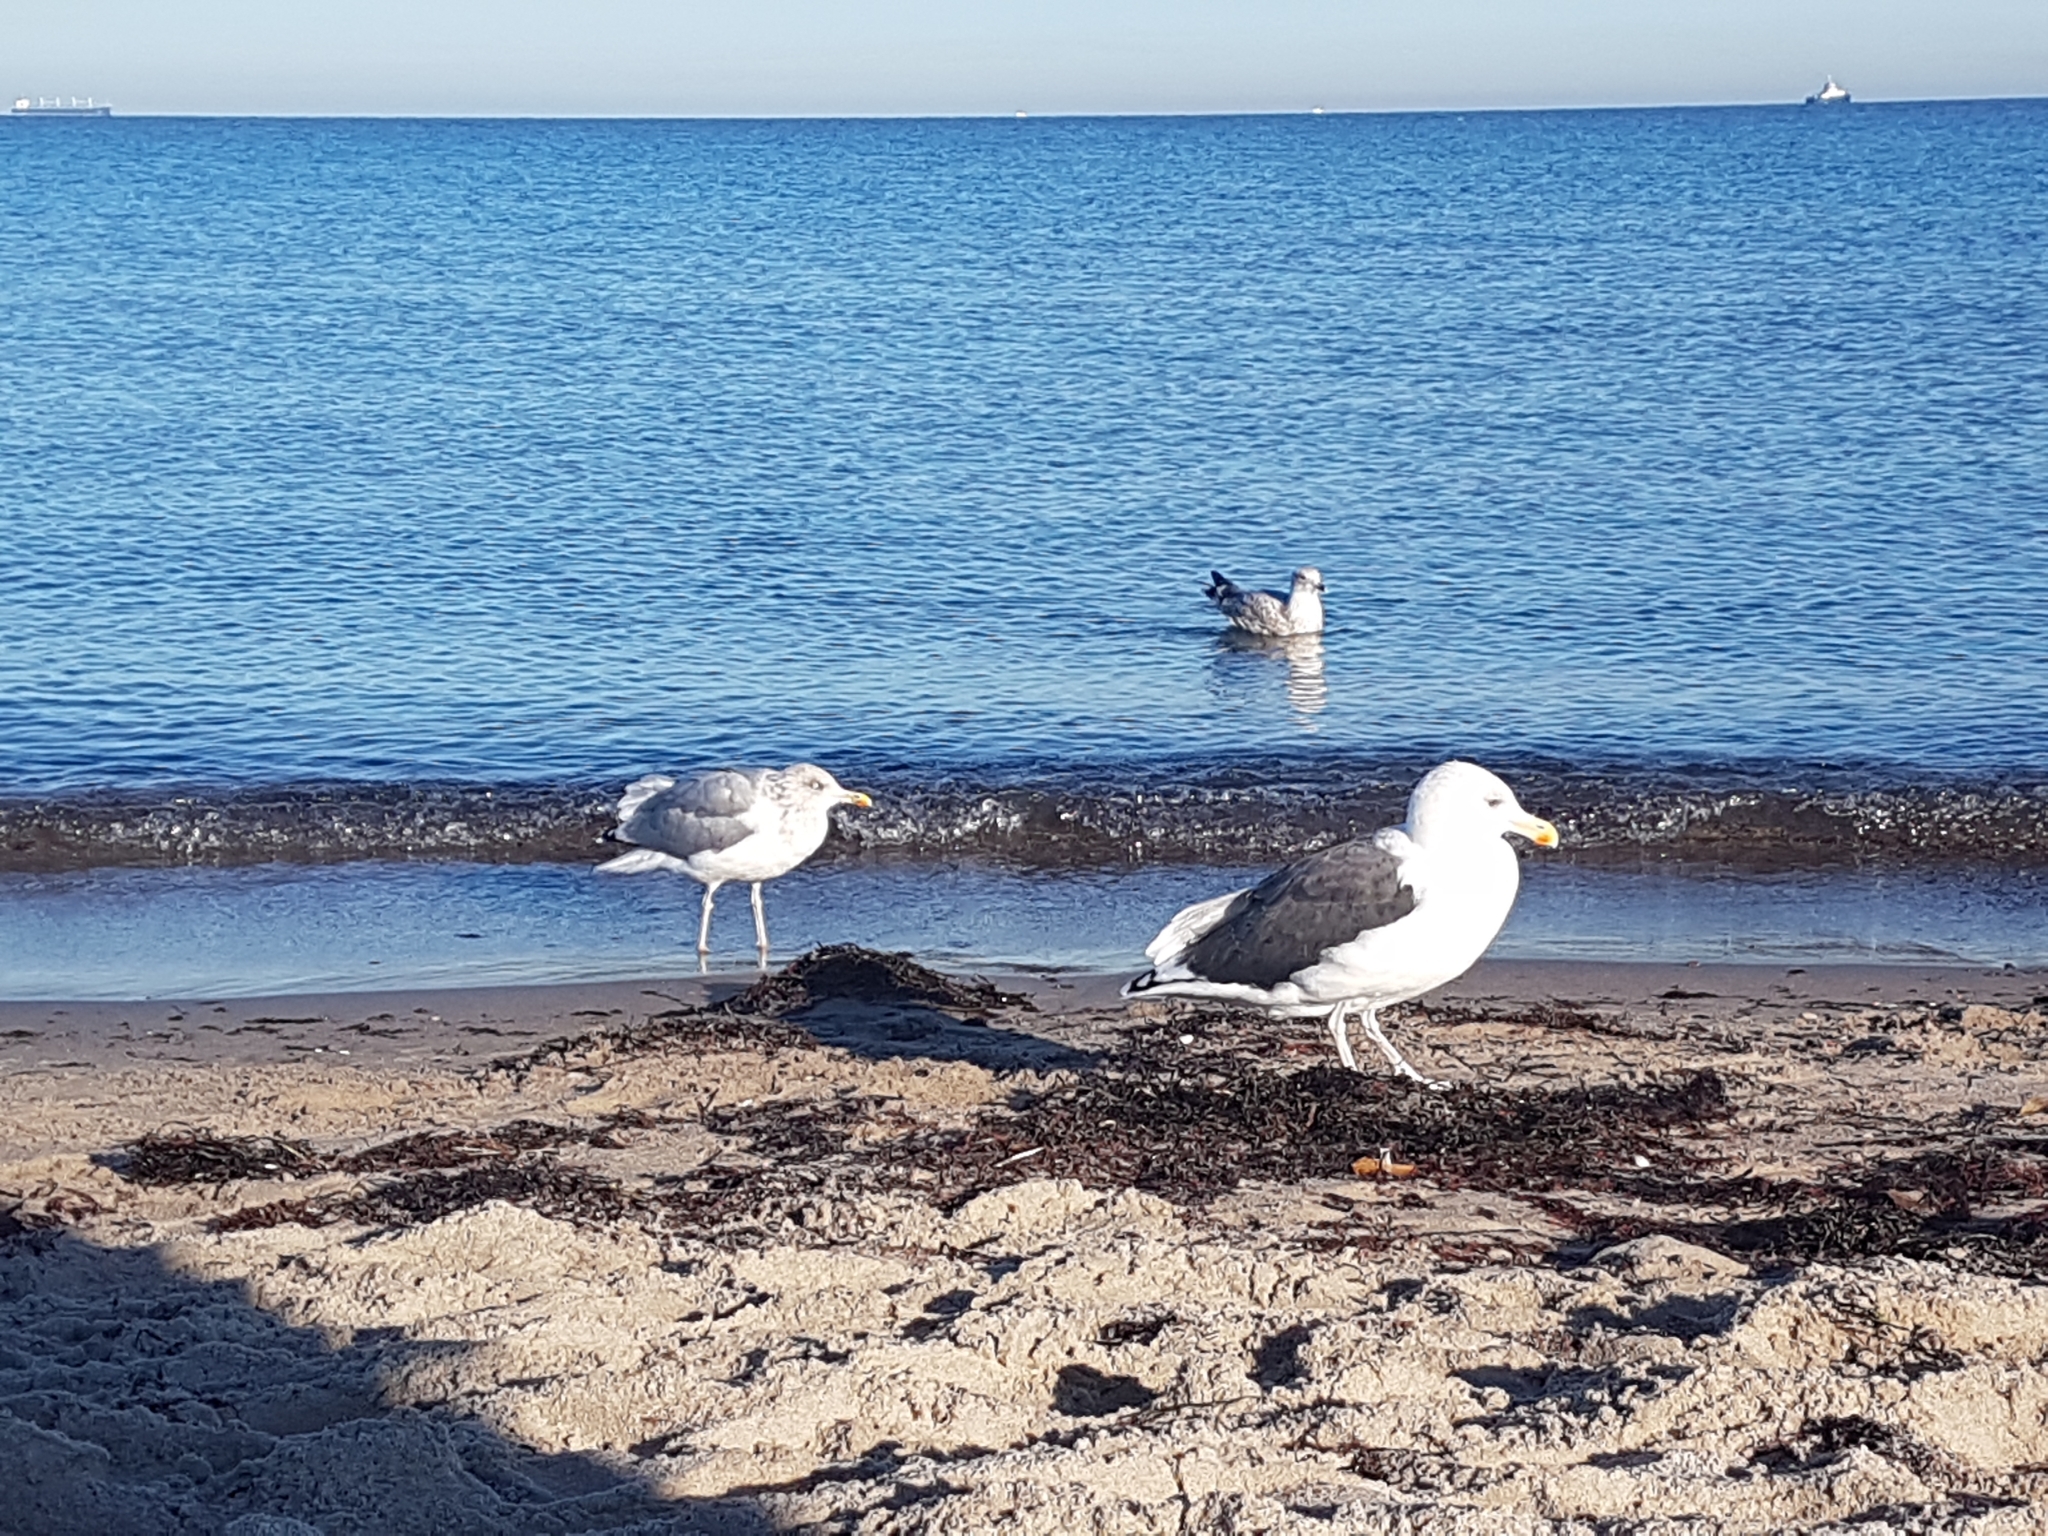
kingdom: Animalia
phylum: Chordata
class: Aves
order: Charadriiformes
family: Laridae
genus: Larus
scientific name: Larus marinus
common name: Great black-backed gull
